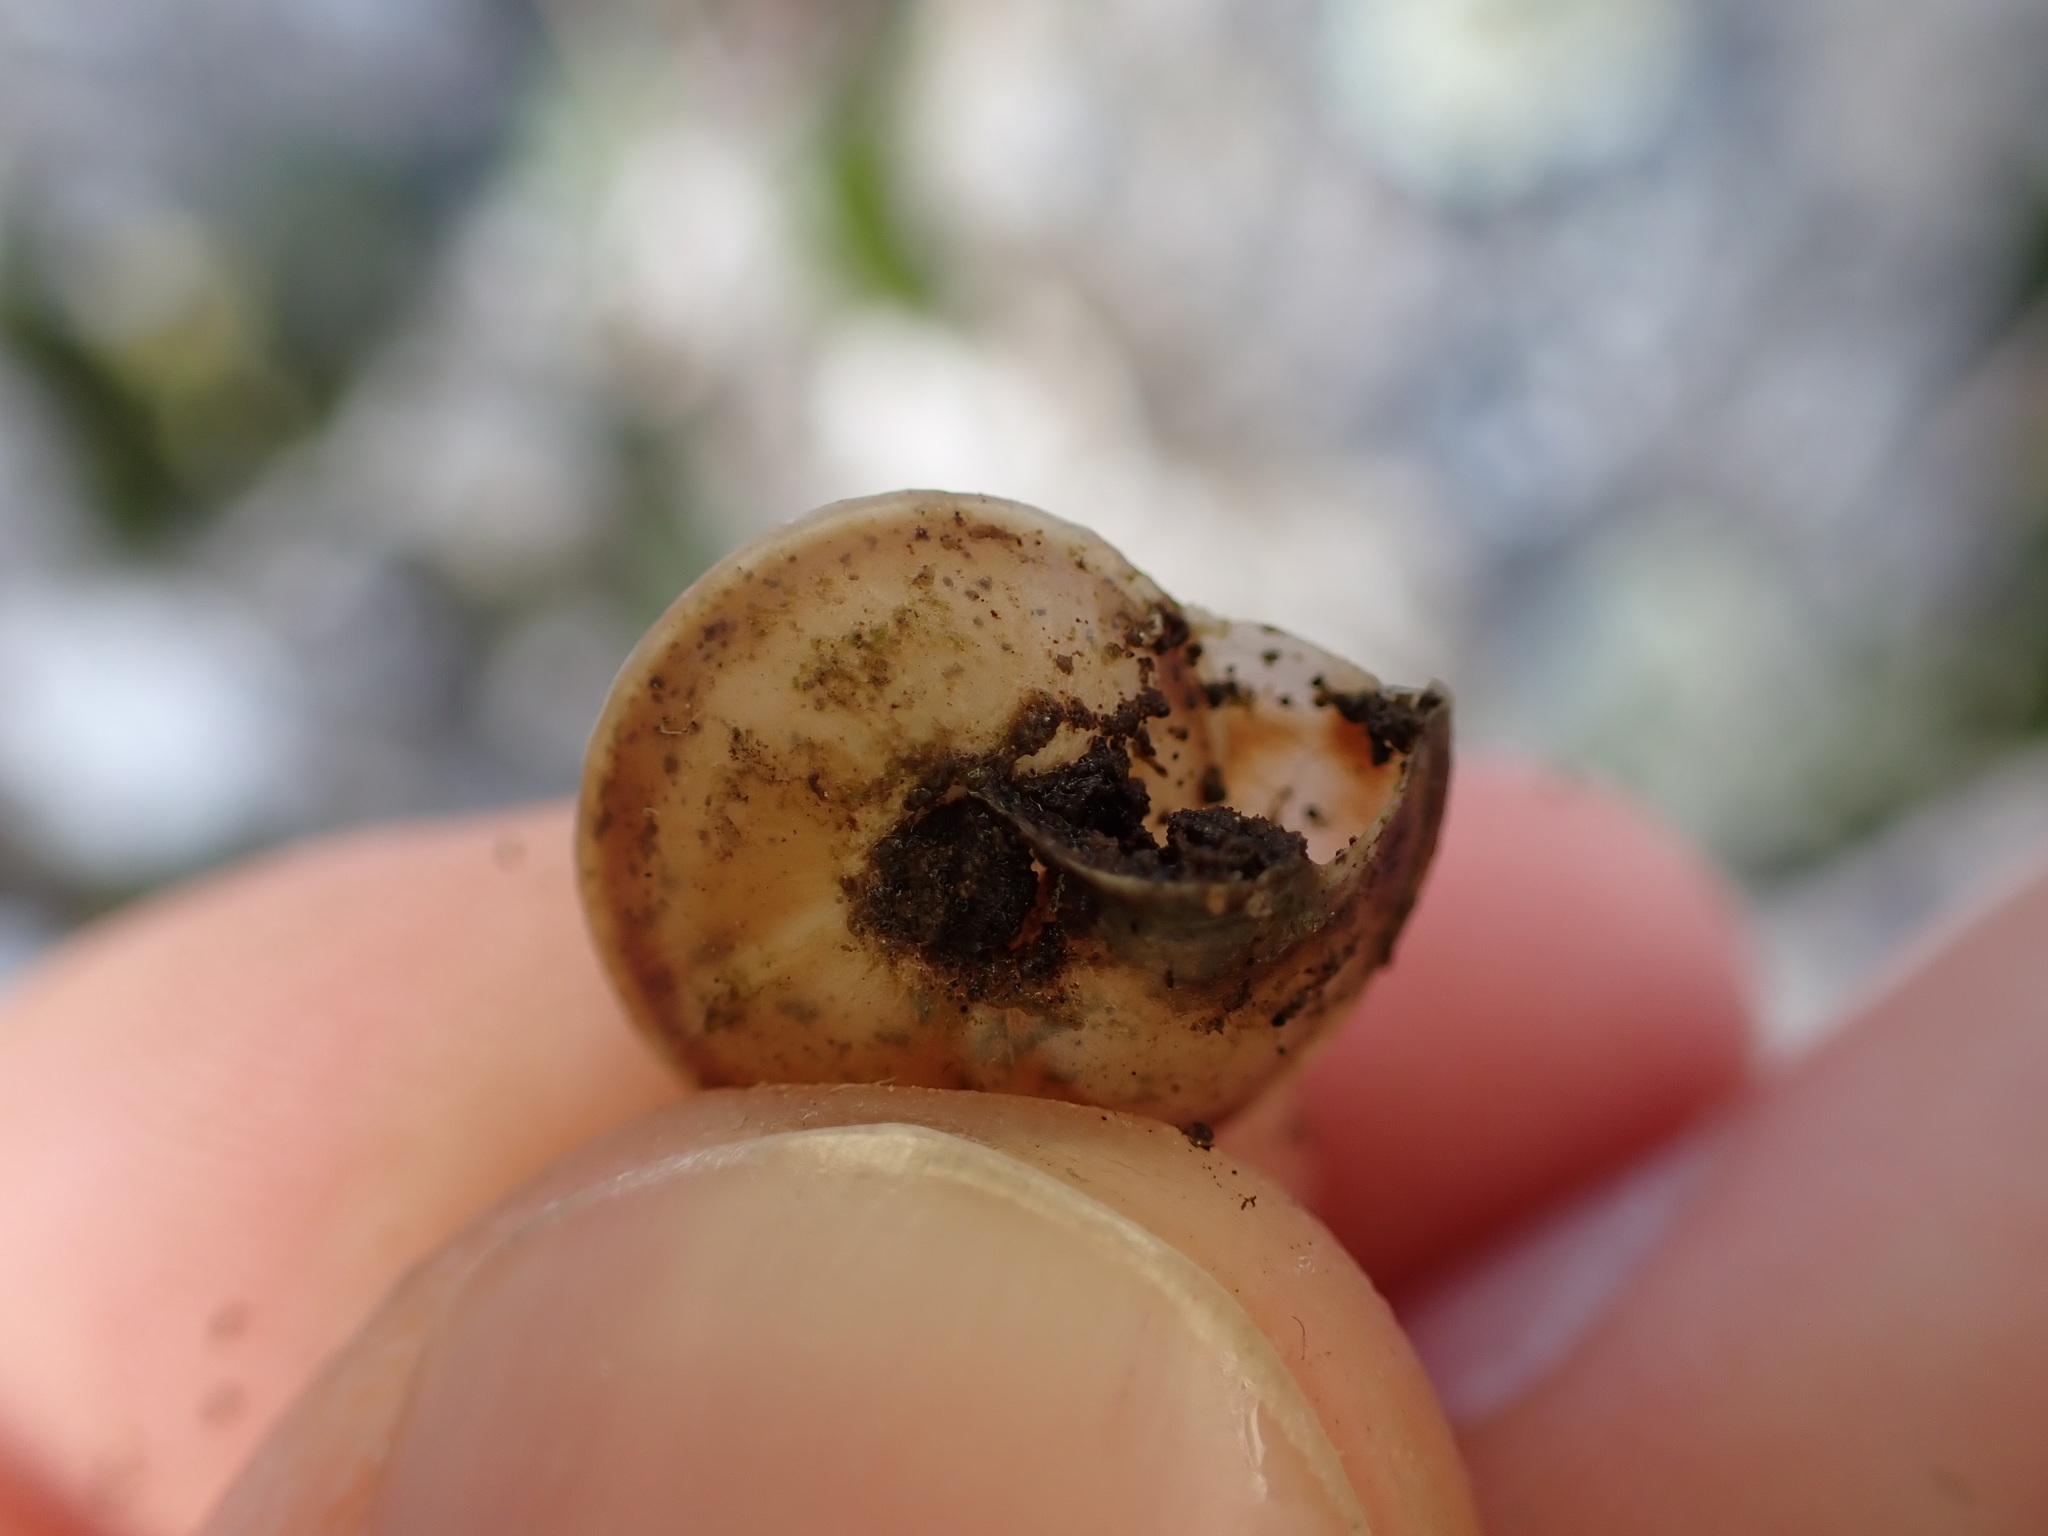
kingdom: Animalia
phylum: Mollusca
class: Gastropoda
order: Stylommatophora
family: Helicidae
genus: Helicigona
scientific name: Helicigona lapicida
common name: Lapidary snail
